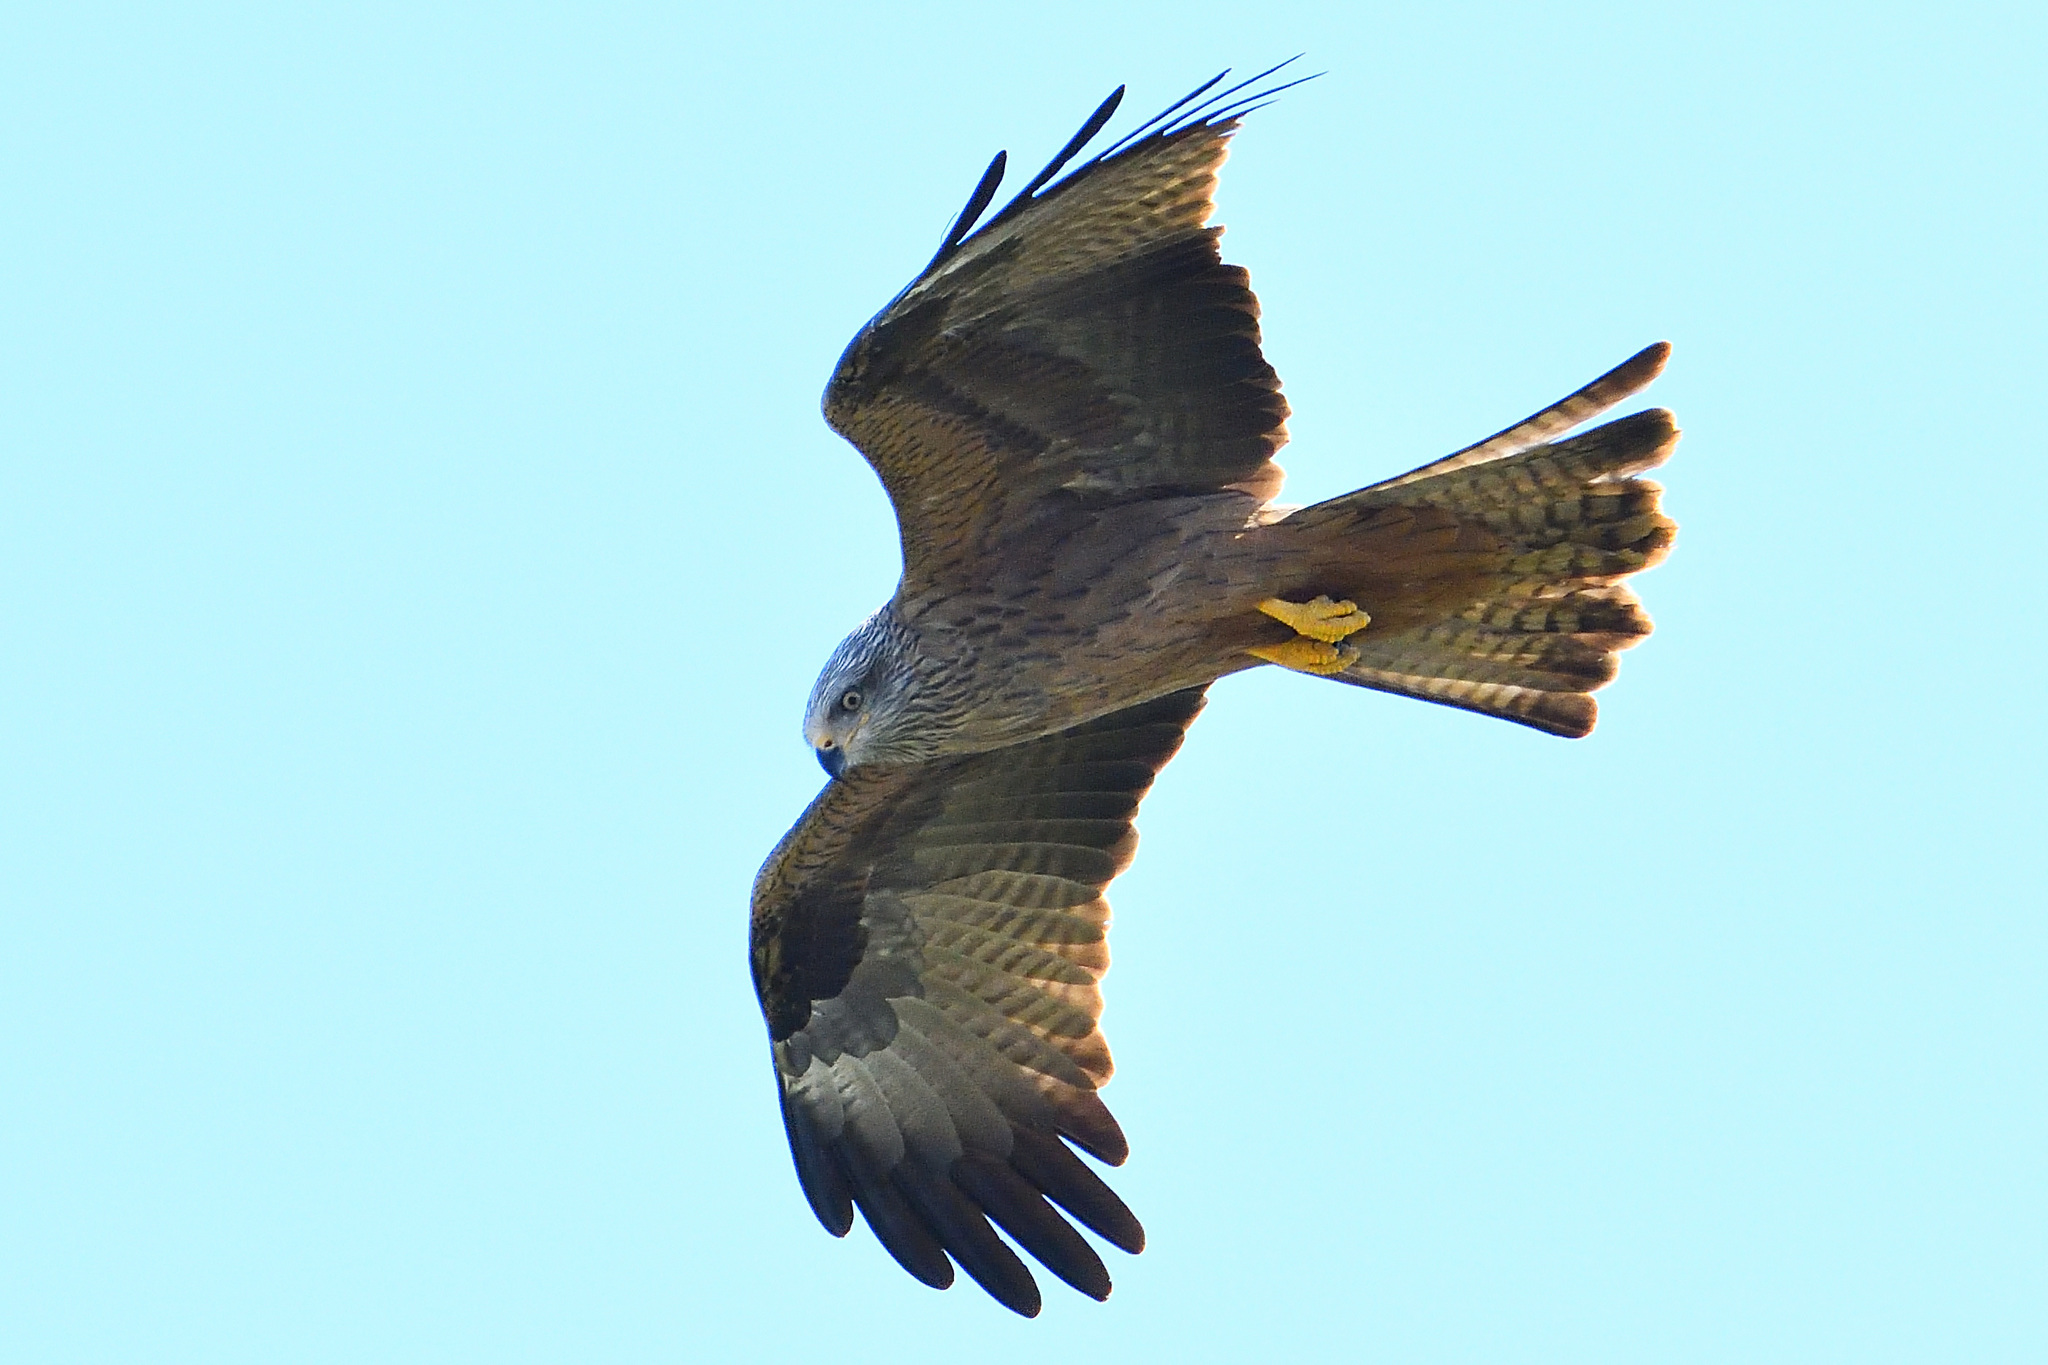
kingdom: Animalia
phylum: Chordata
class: Aves
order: Accipitriformes
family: Accipitridae
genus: Milvus
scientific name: Milvus migrans
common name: Black kite
